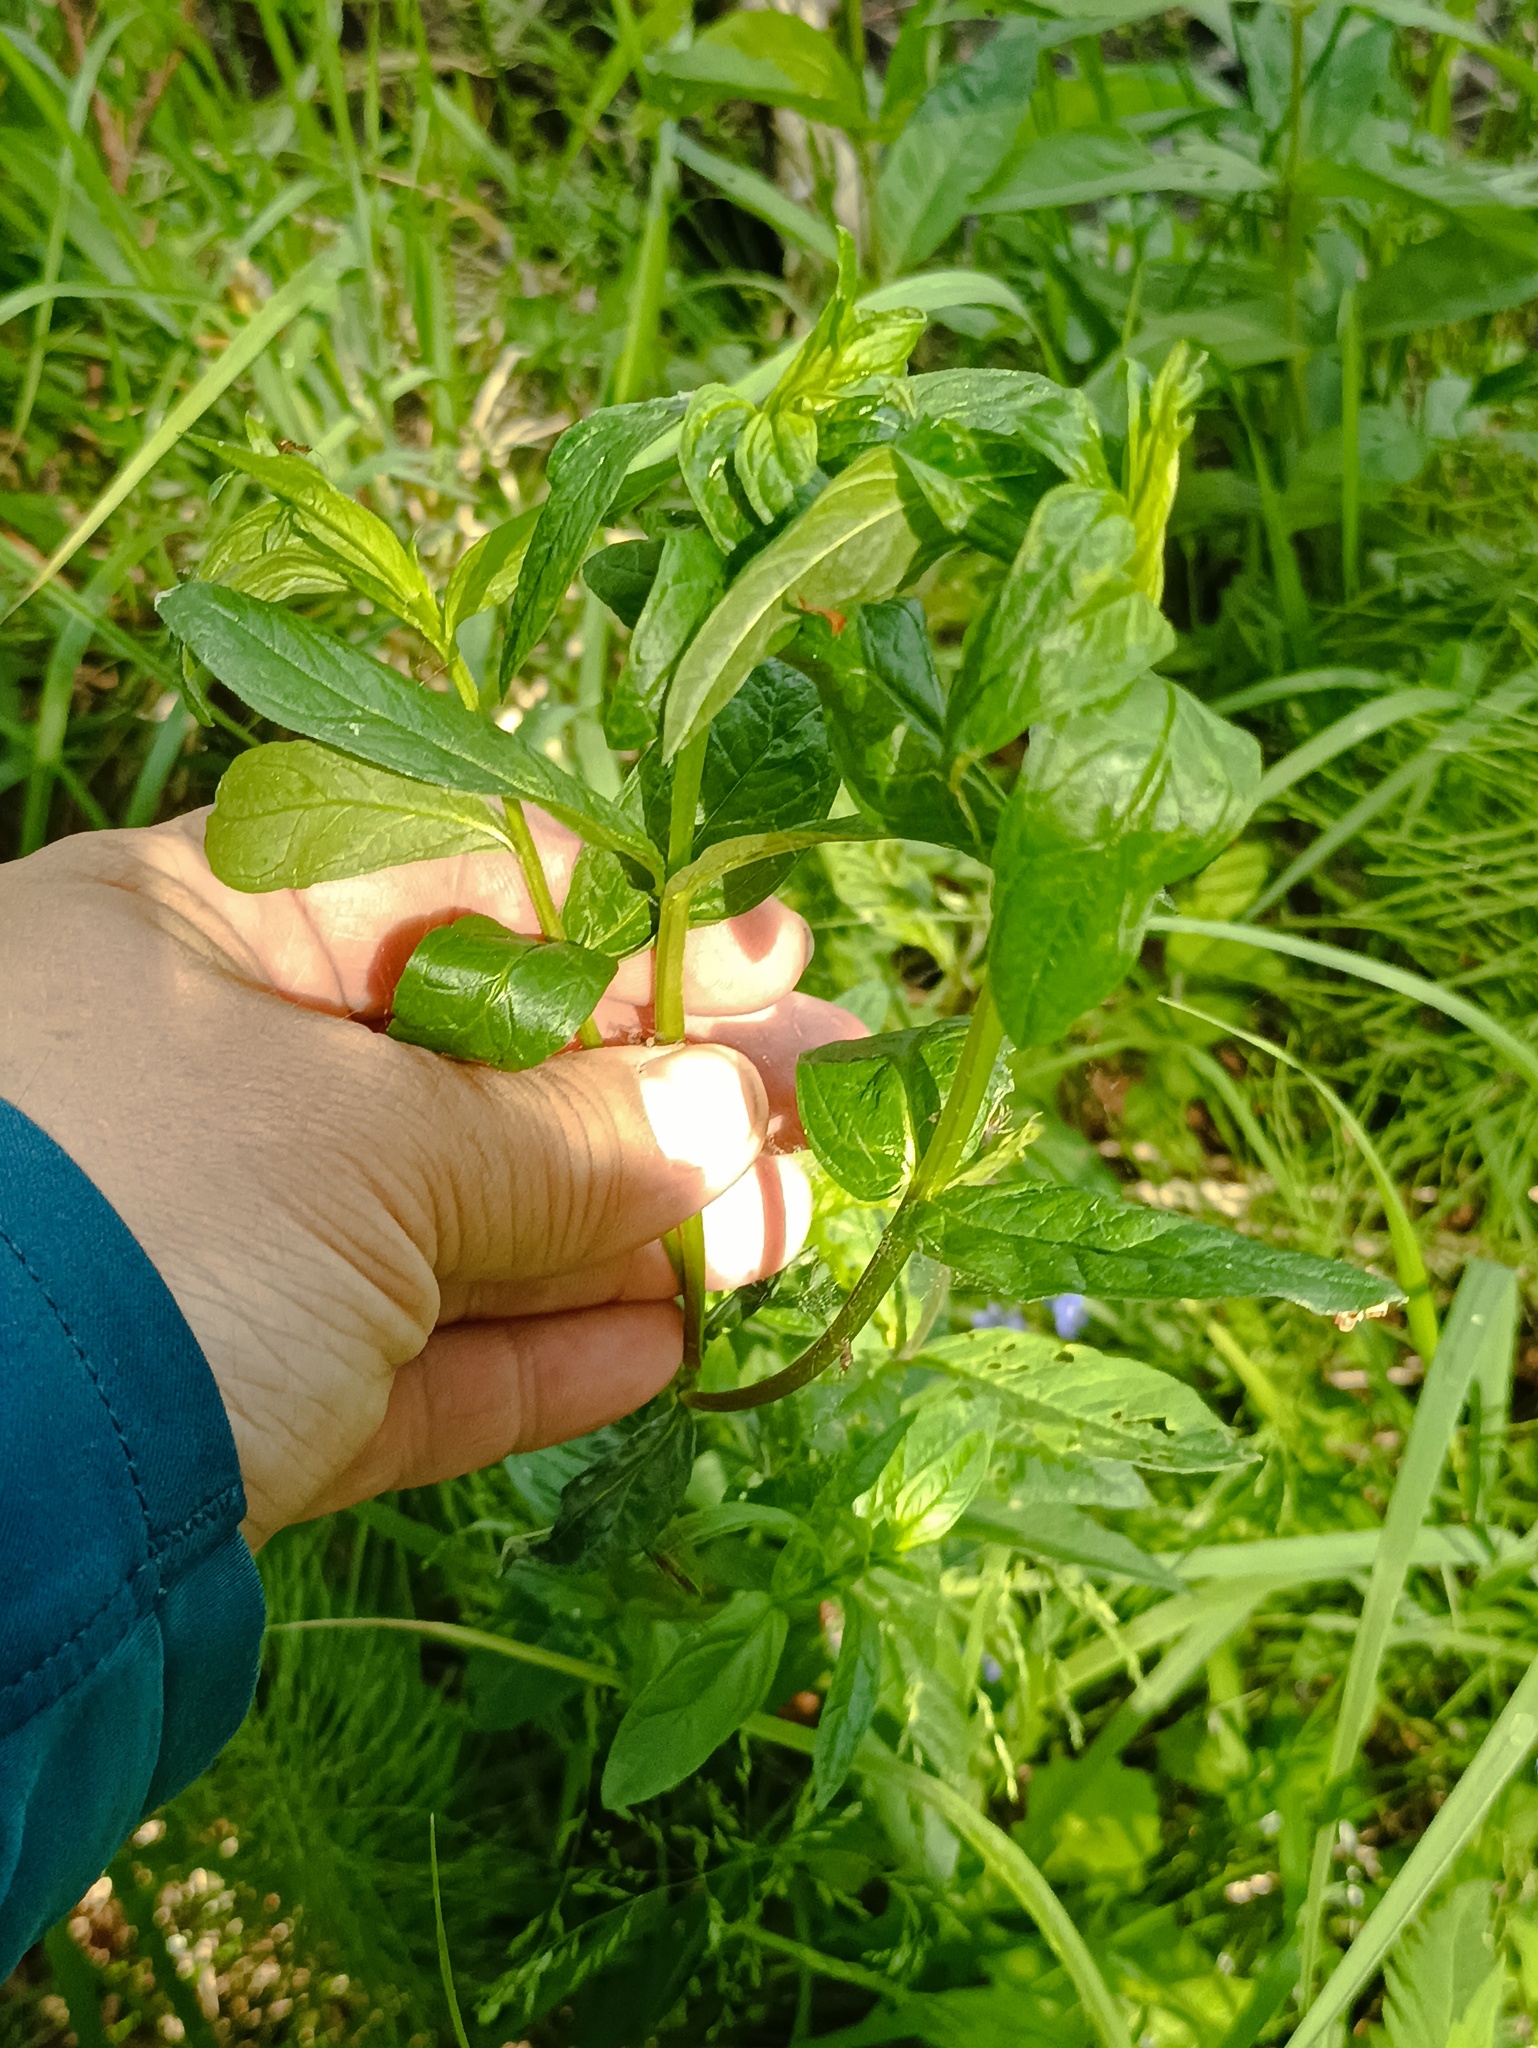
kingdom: Plantae
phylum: Tracheophyta
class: Magnoliopsida
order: Myrtales
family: Lythraceae
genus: Lythrum
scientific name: Lythrum salicaria
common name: Purple loosestrife
